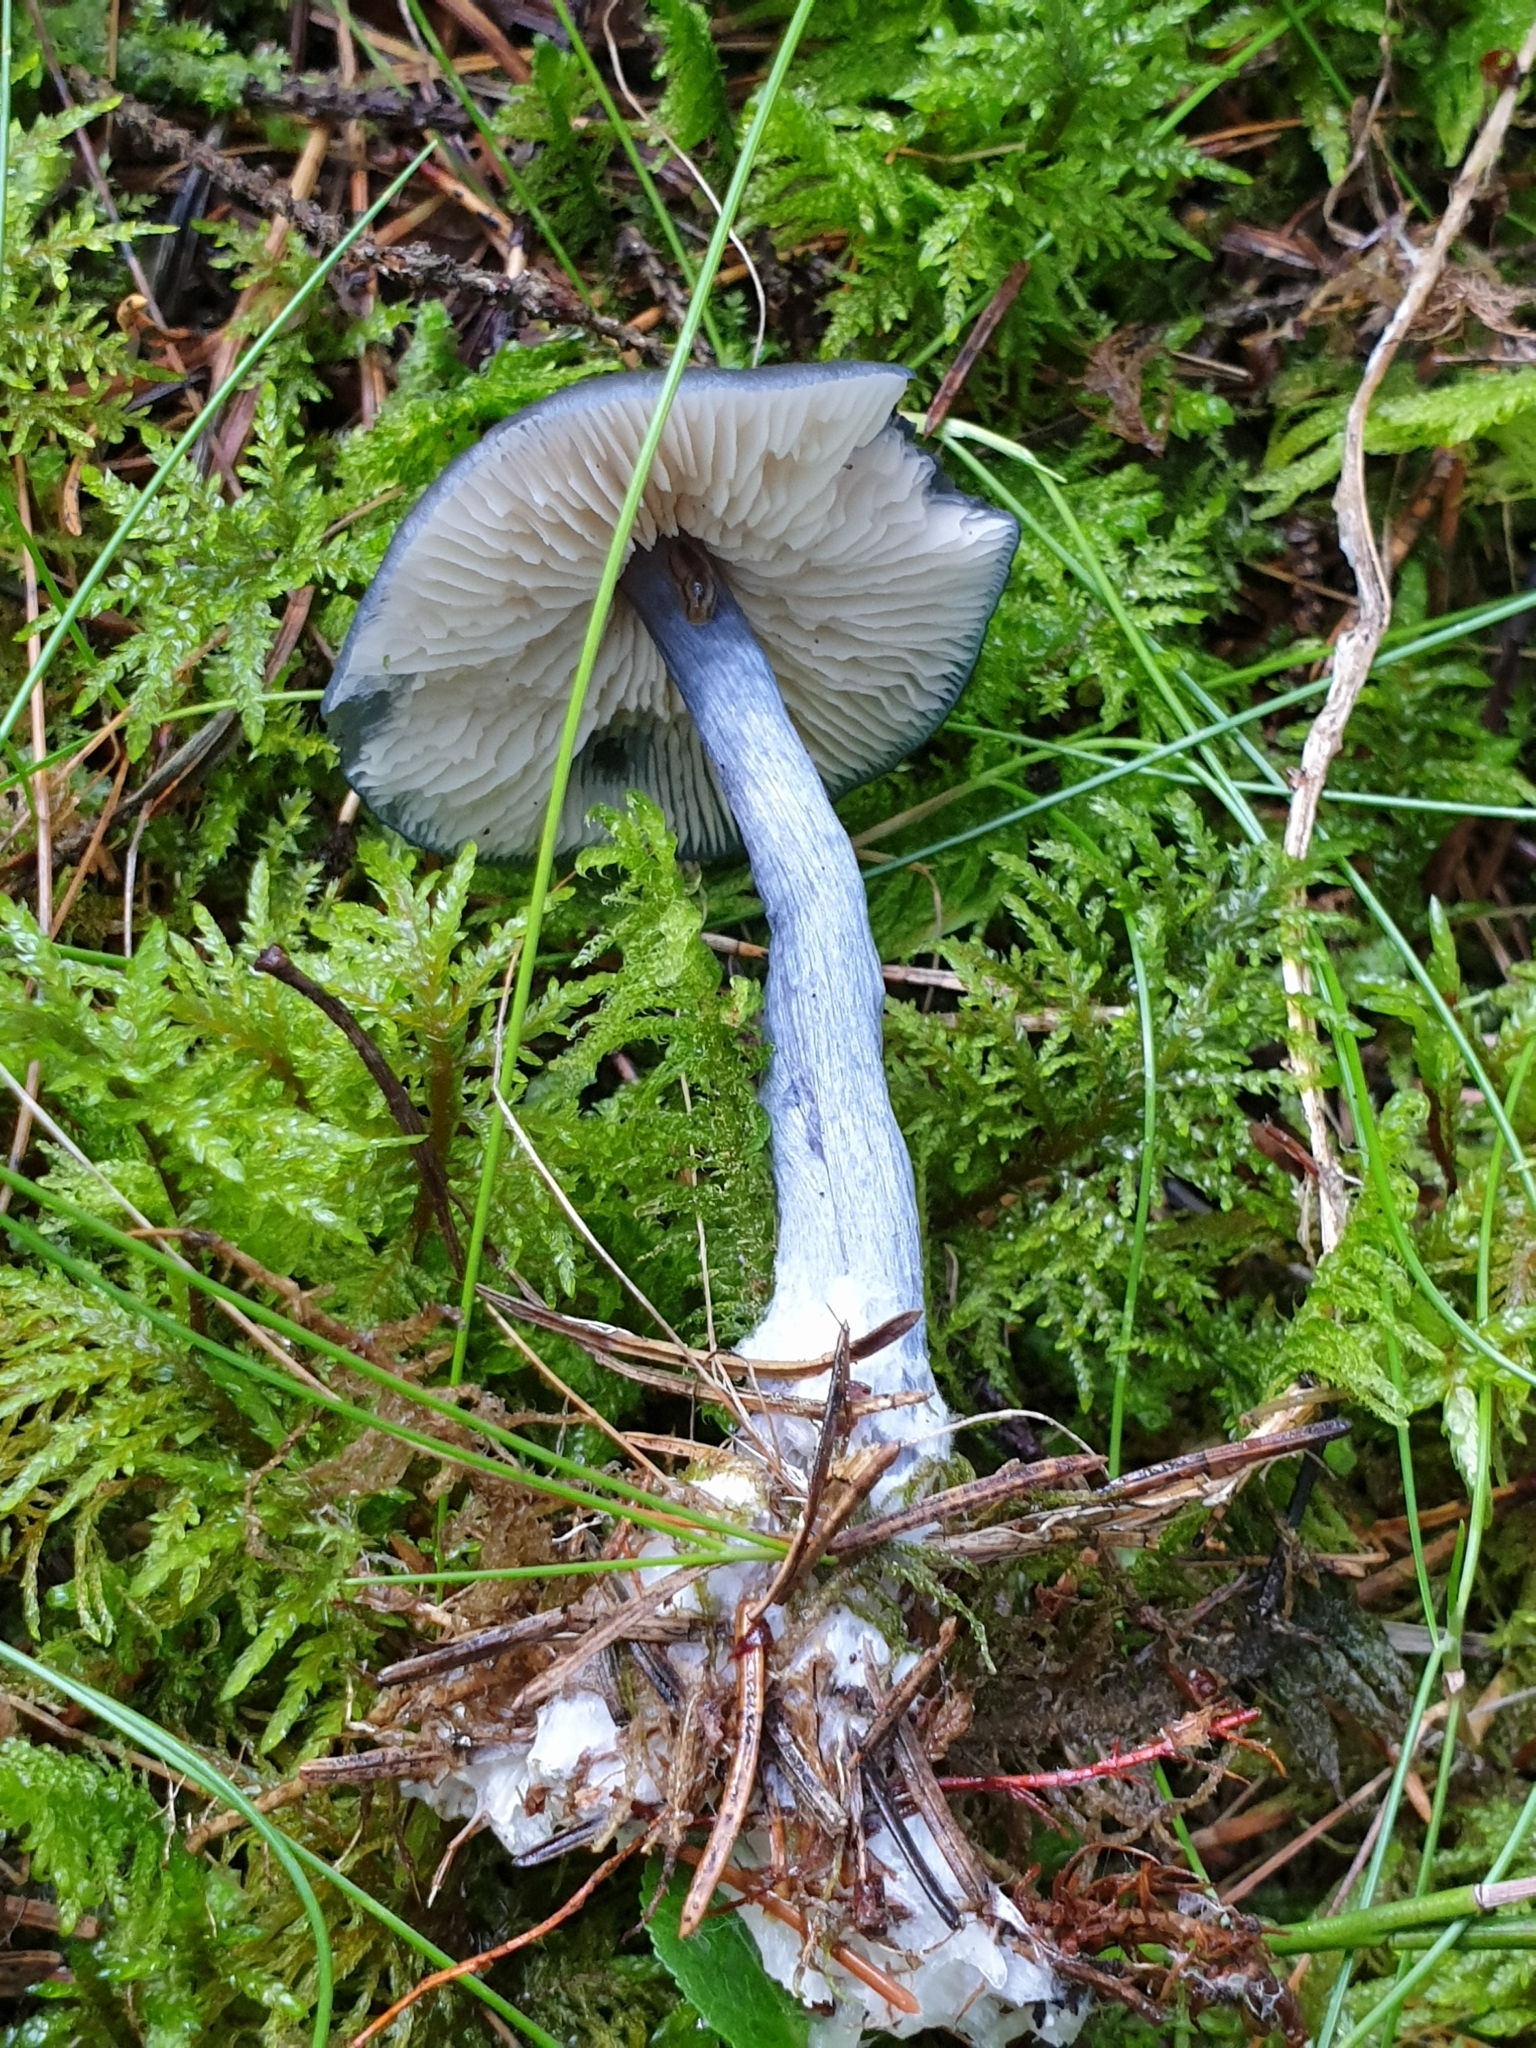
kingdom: Fungi
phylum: Basidiomycota
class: Agaricomycetes
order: Agaricales
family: Entolomataceae
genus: Entocybe
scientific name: Entocybe nitida
